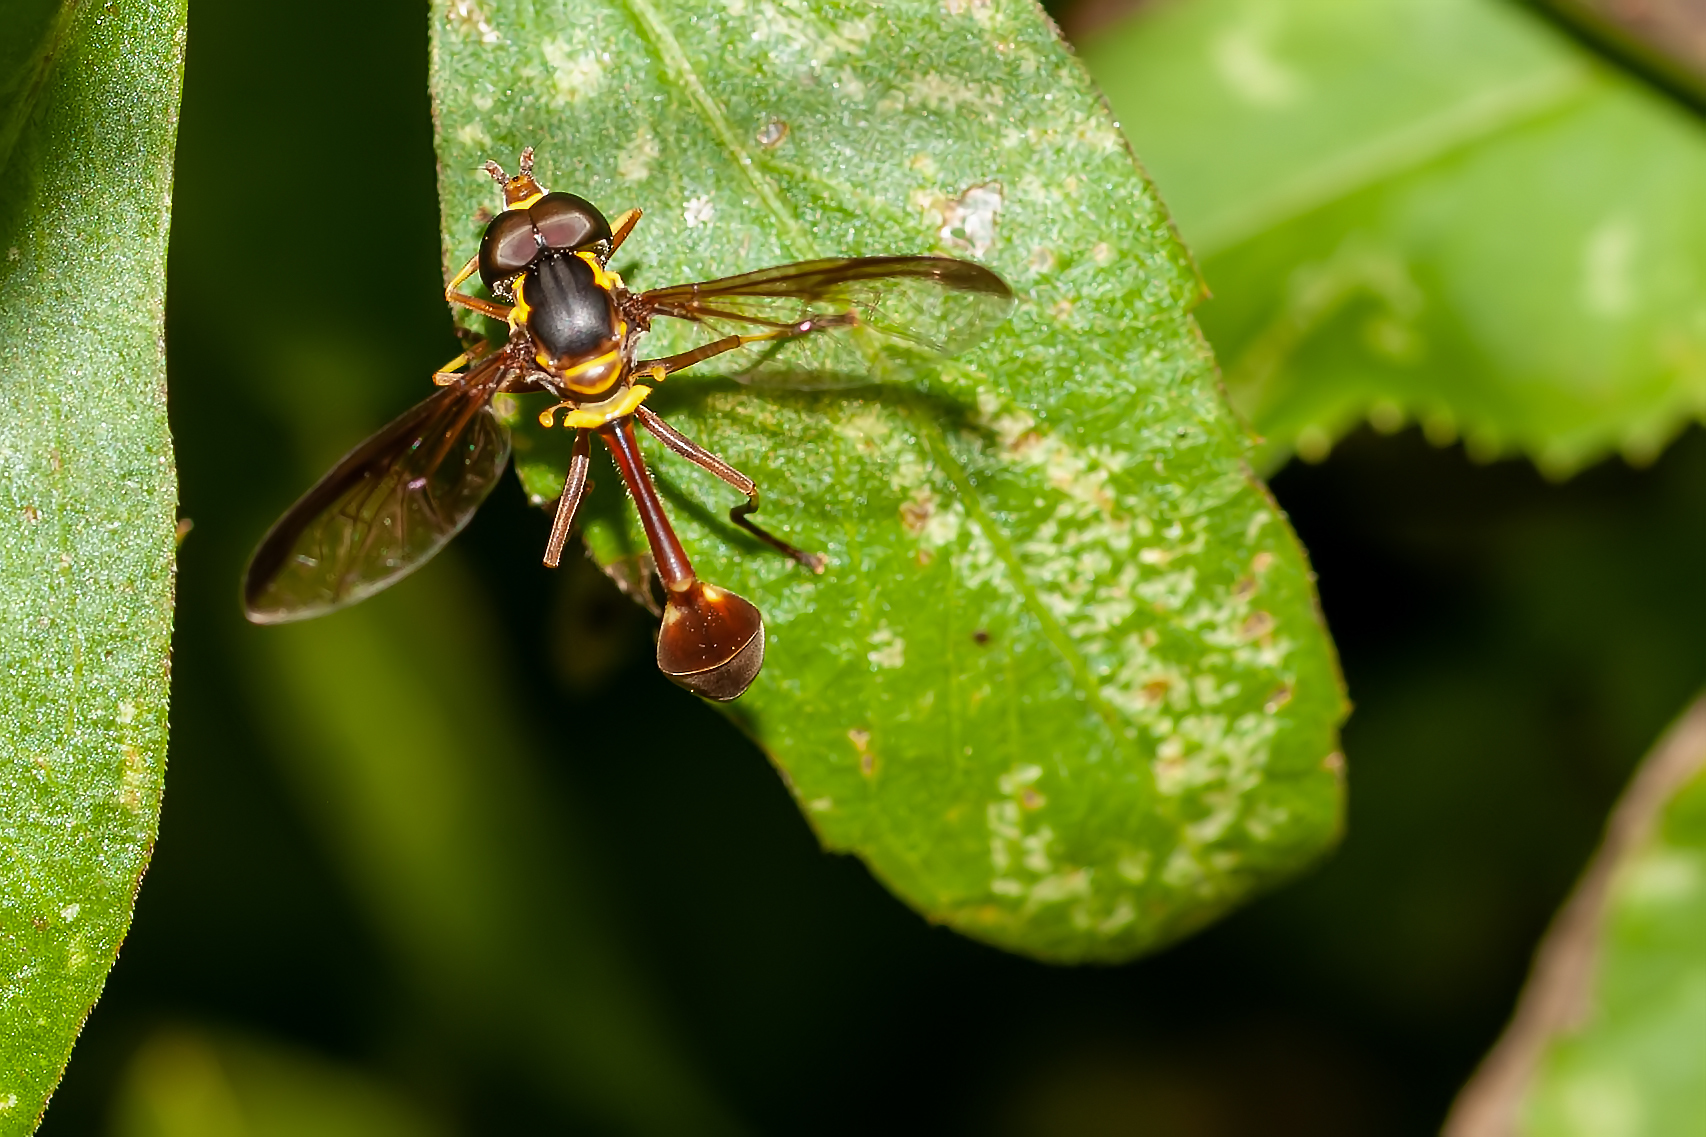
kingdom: Animalia
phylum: Arthropoda
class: Insecta
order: Diptera
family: Syrphidae
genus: Salpingogaster
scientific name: Salpingogaster punctifrons
